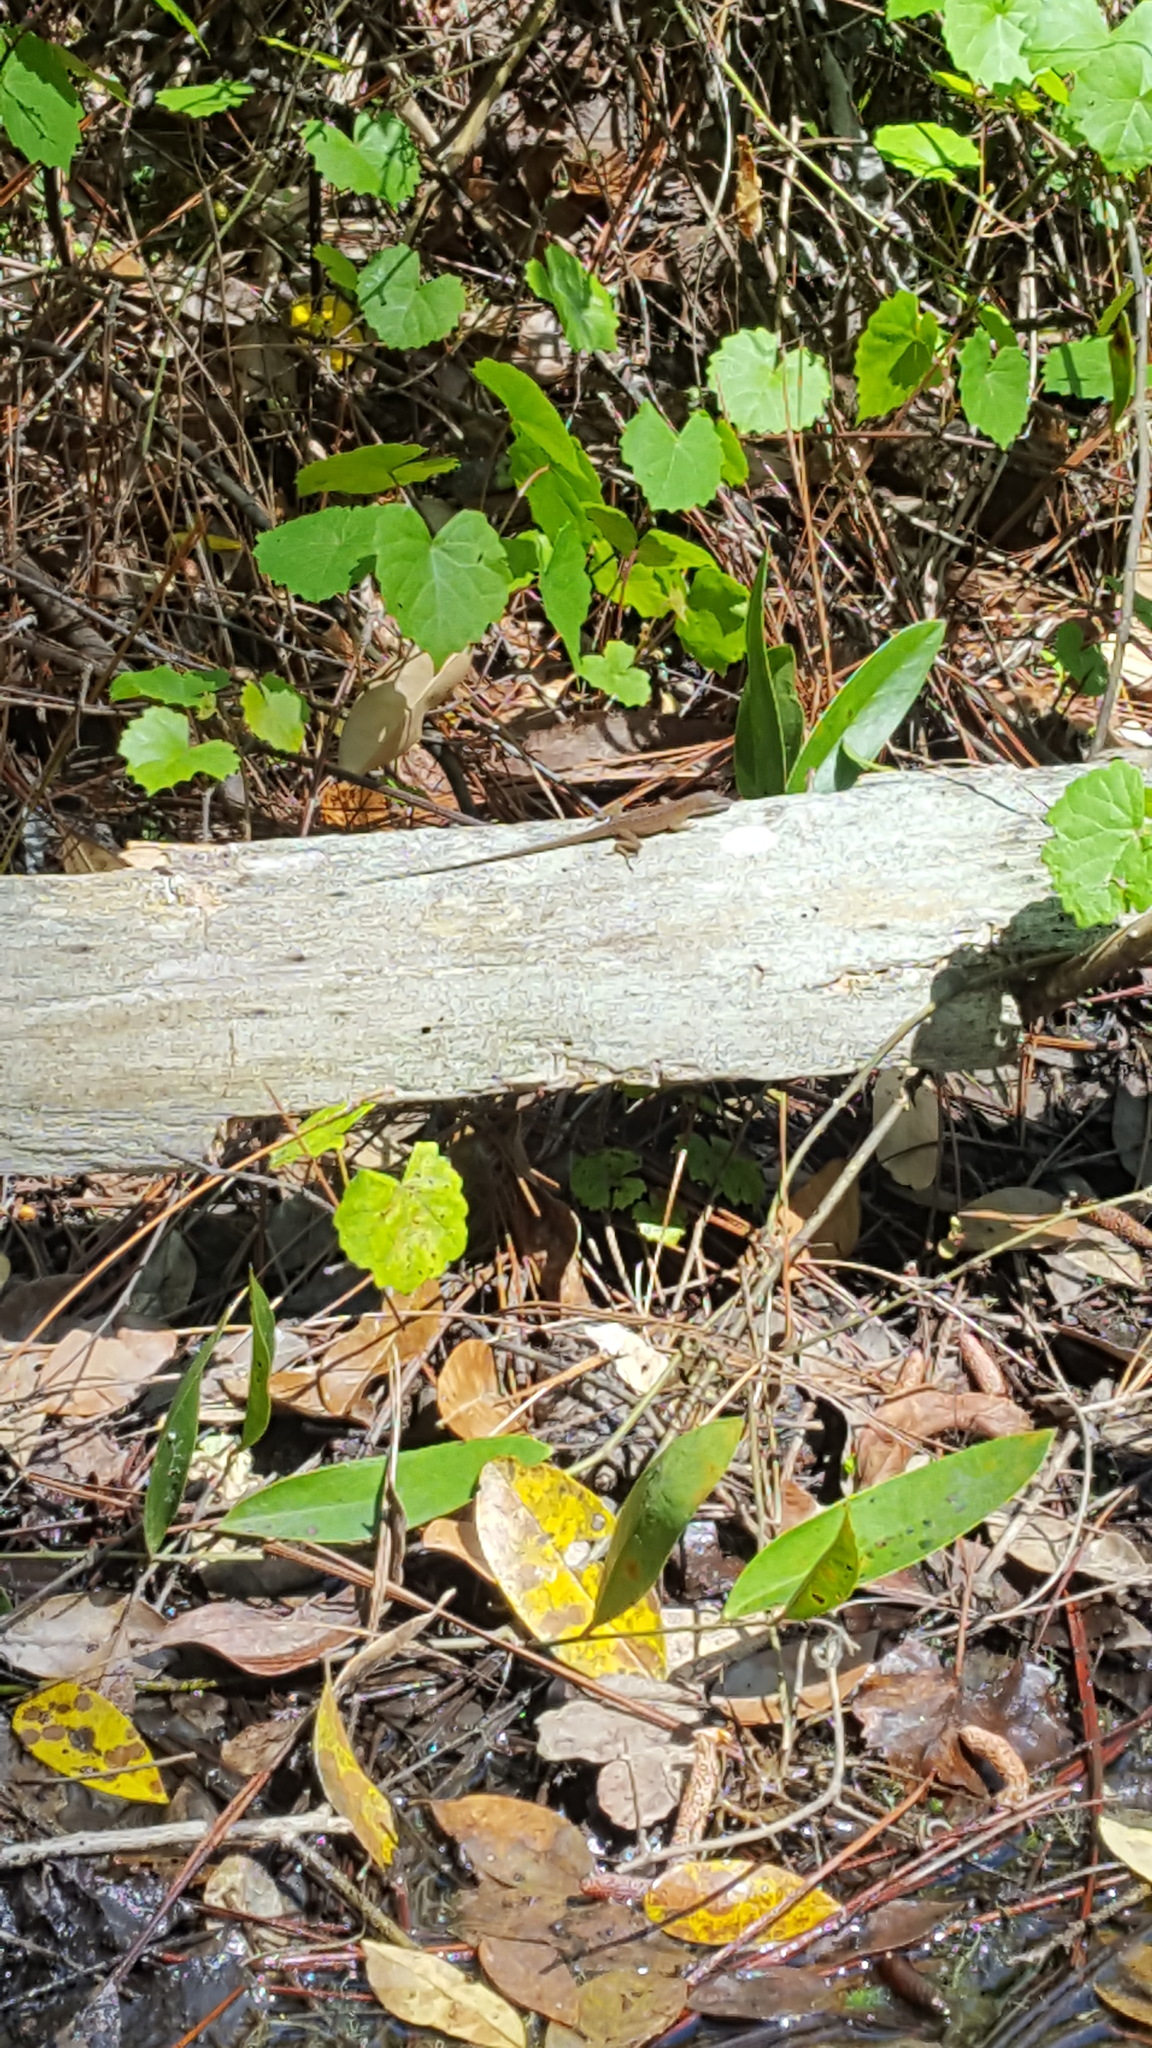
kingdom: Animalia
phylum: Chordata
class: Squamata
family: Dactyloidae
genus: Anolis
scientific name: Anolis carolinensis
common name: Green anole
